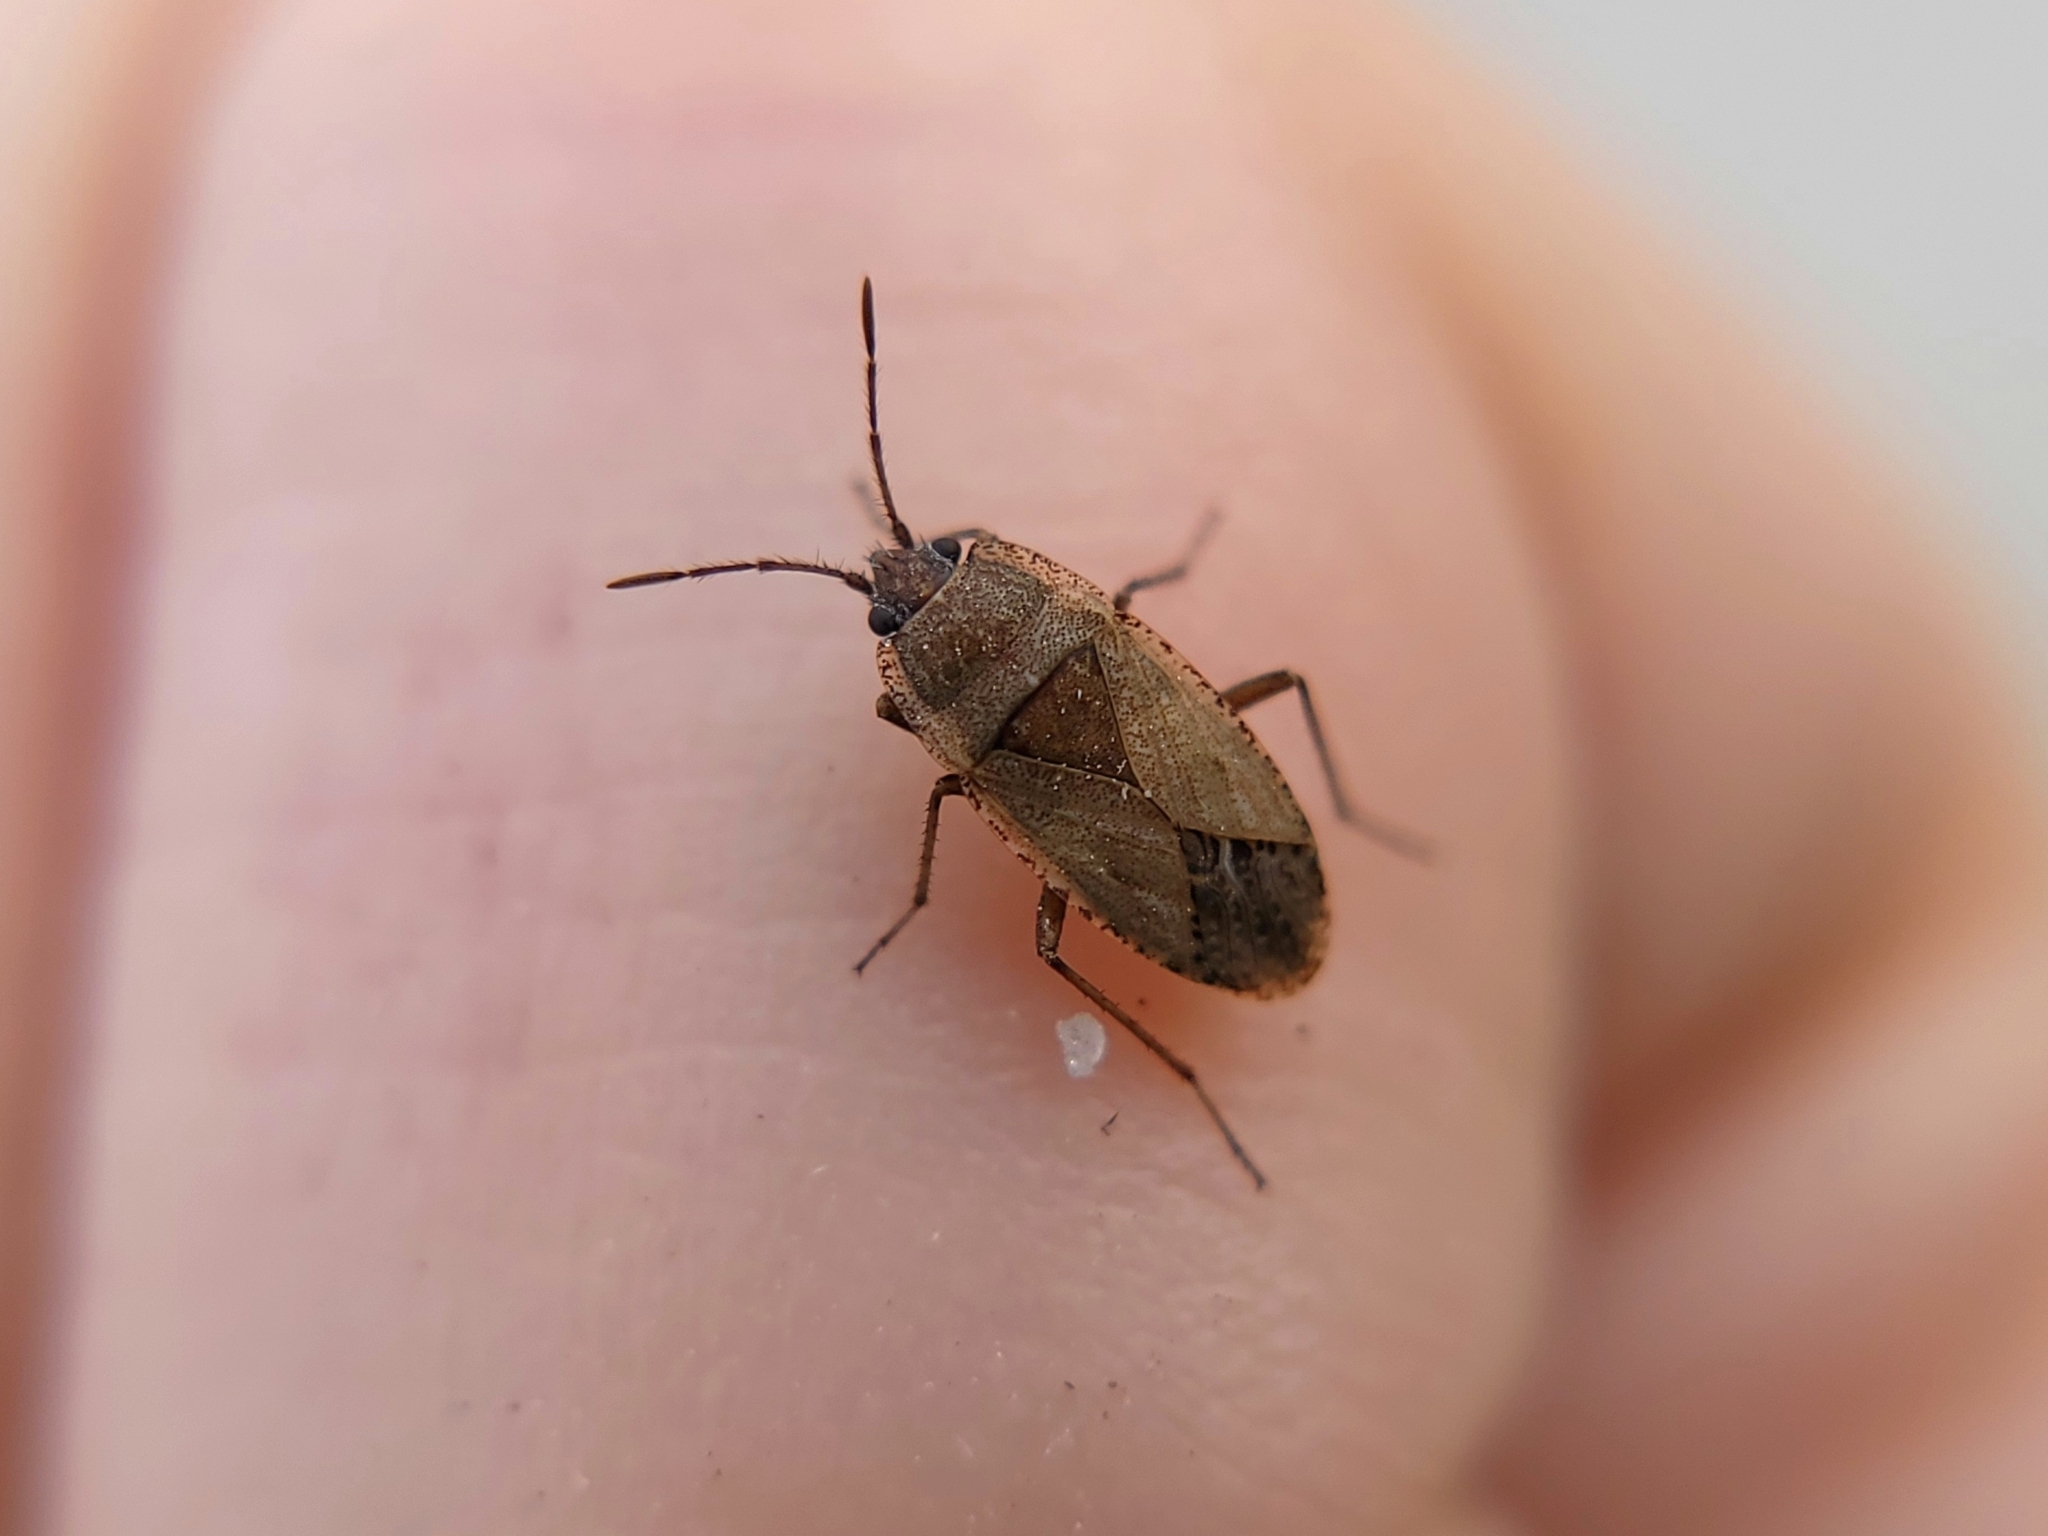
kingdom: Animalia
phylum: Arthropoda
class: Insecta
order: Hemiptera
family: Rhyparochromidae
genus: Emblethis
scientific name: Emblethis vicarius
